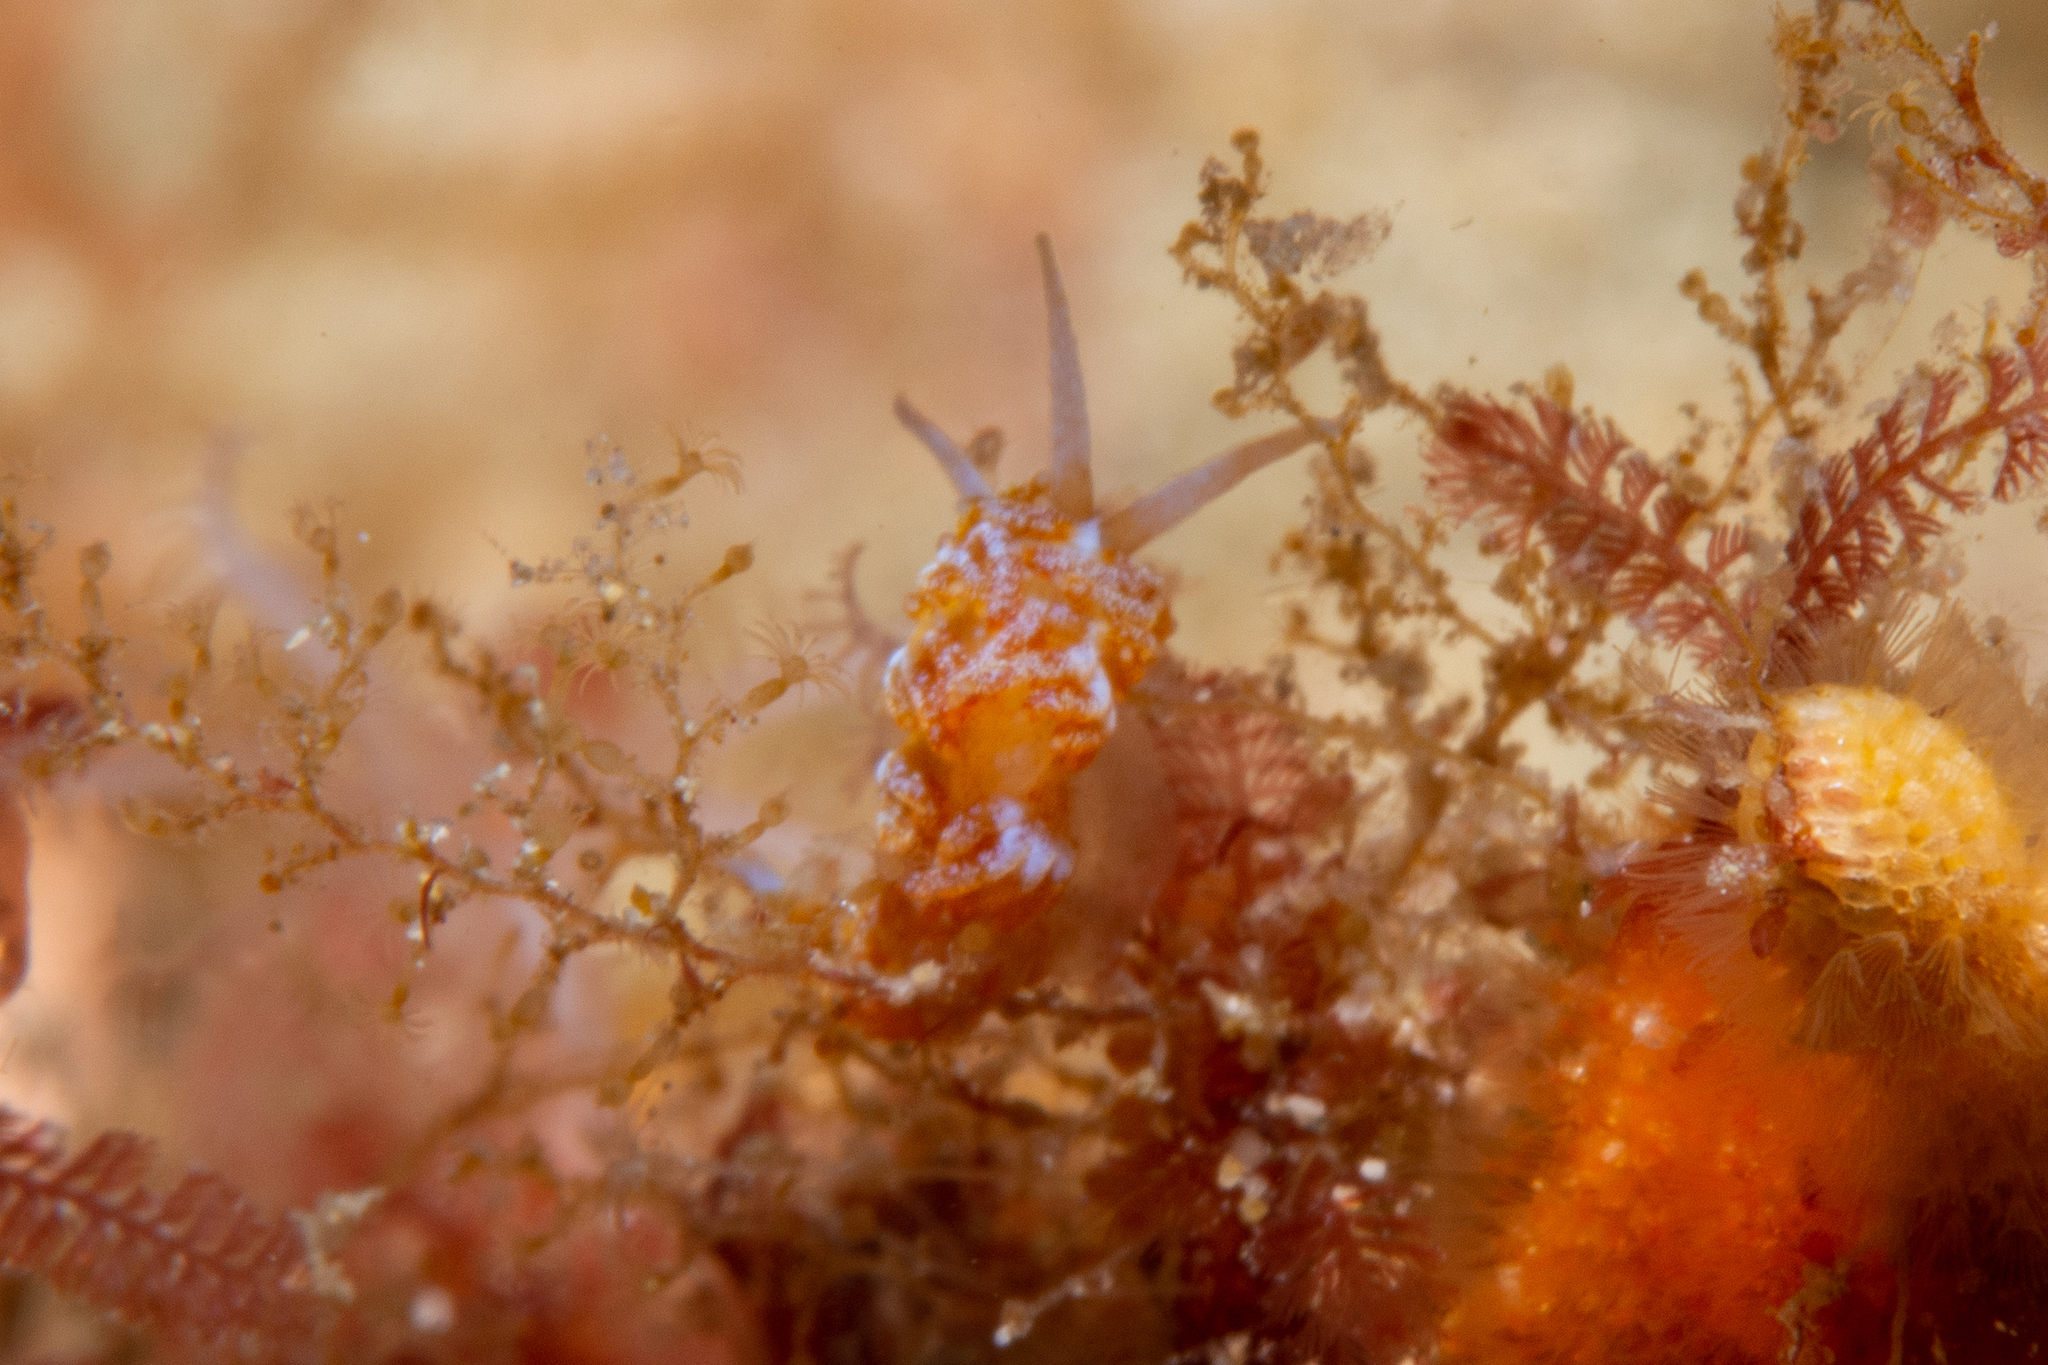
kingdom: Animalia
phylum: Mollusca
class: Gastropoda
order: Nudibranchia
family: Apataidae
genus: Tularia
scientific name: Tularia bractea
